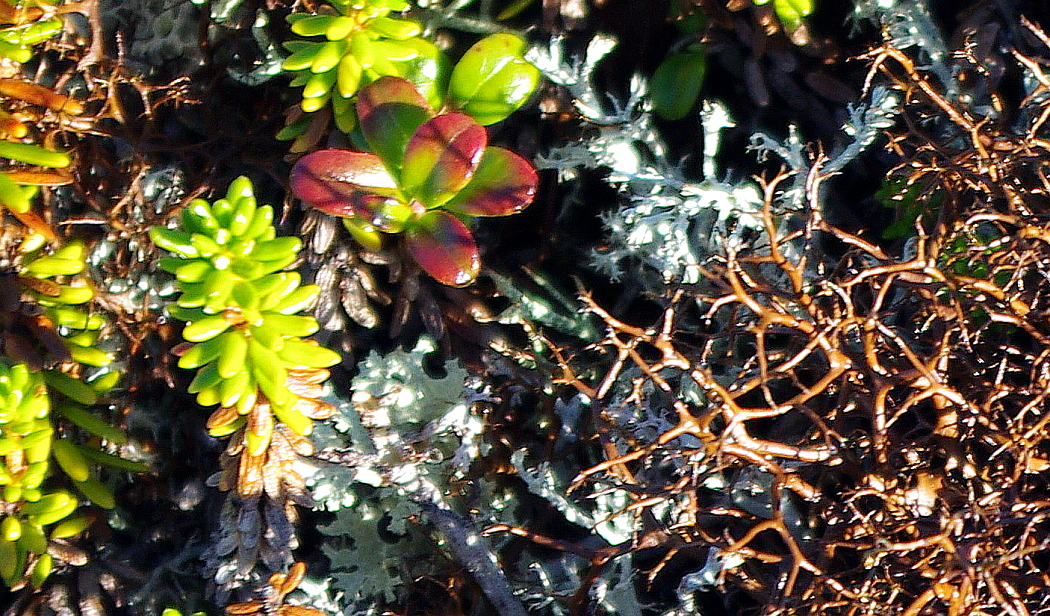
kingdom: Fungi
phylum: Ascomycota
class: Lecanoromycetes
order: Lecanorales
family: Parmeliaceae
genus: Nephromopsis
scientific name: Nephromopsis nivalis
